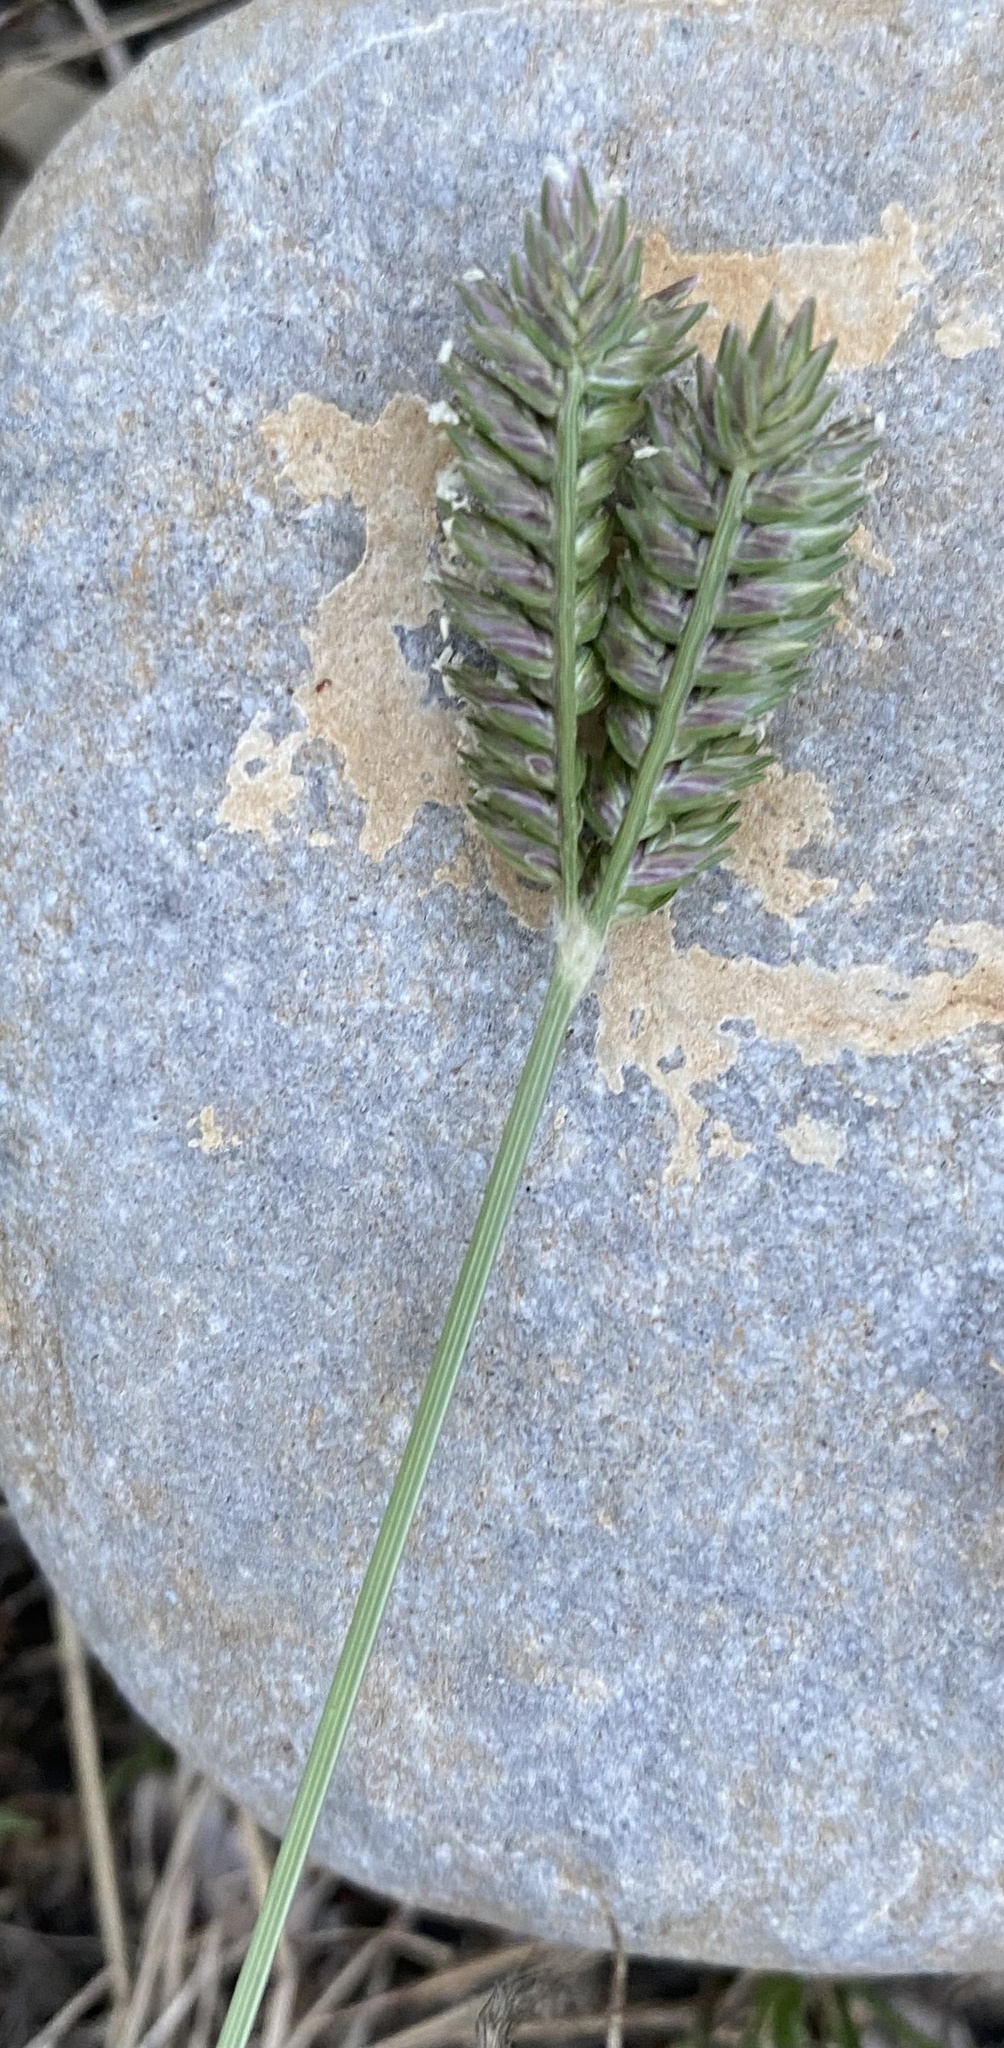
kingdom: Plantae
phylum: Tracheophyta
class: Liliopsida
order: Poales
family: Poaceae
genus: Eleusine
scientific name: Eleusine tristachya
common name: American yard-grass
